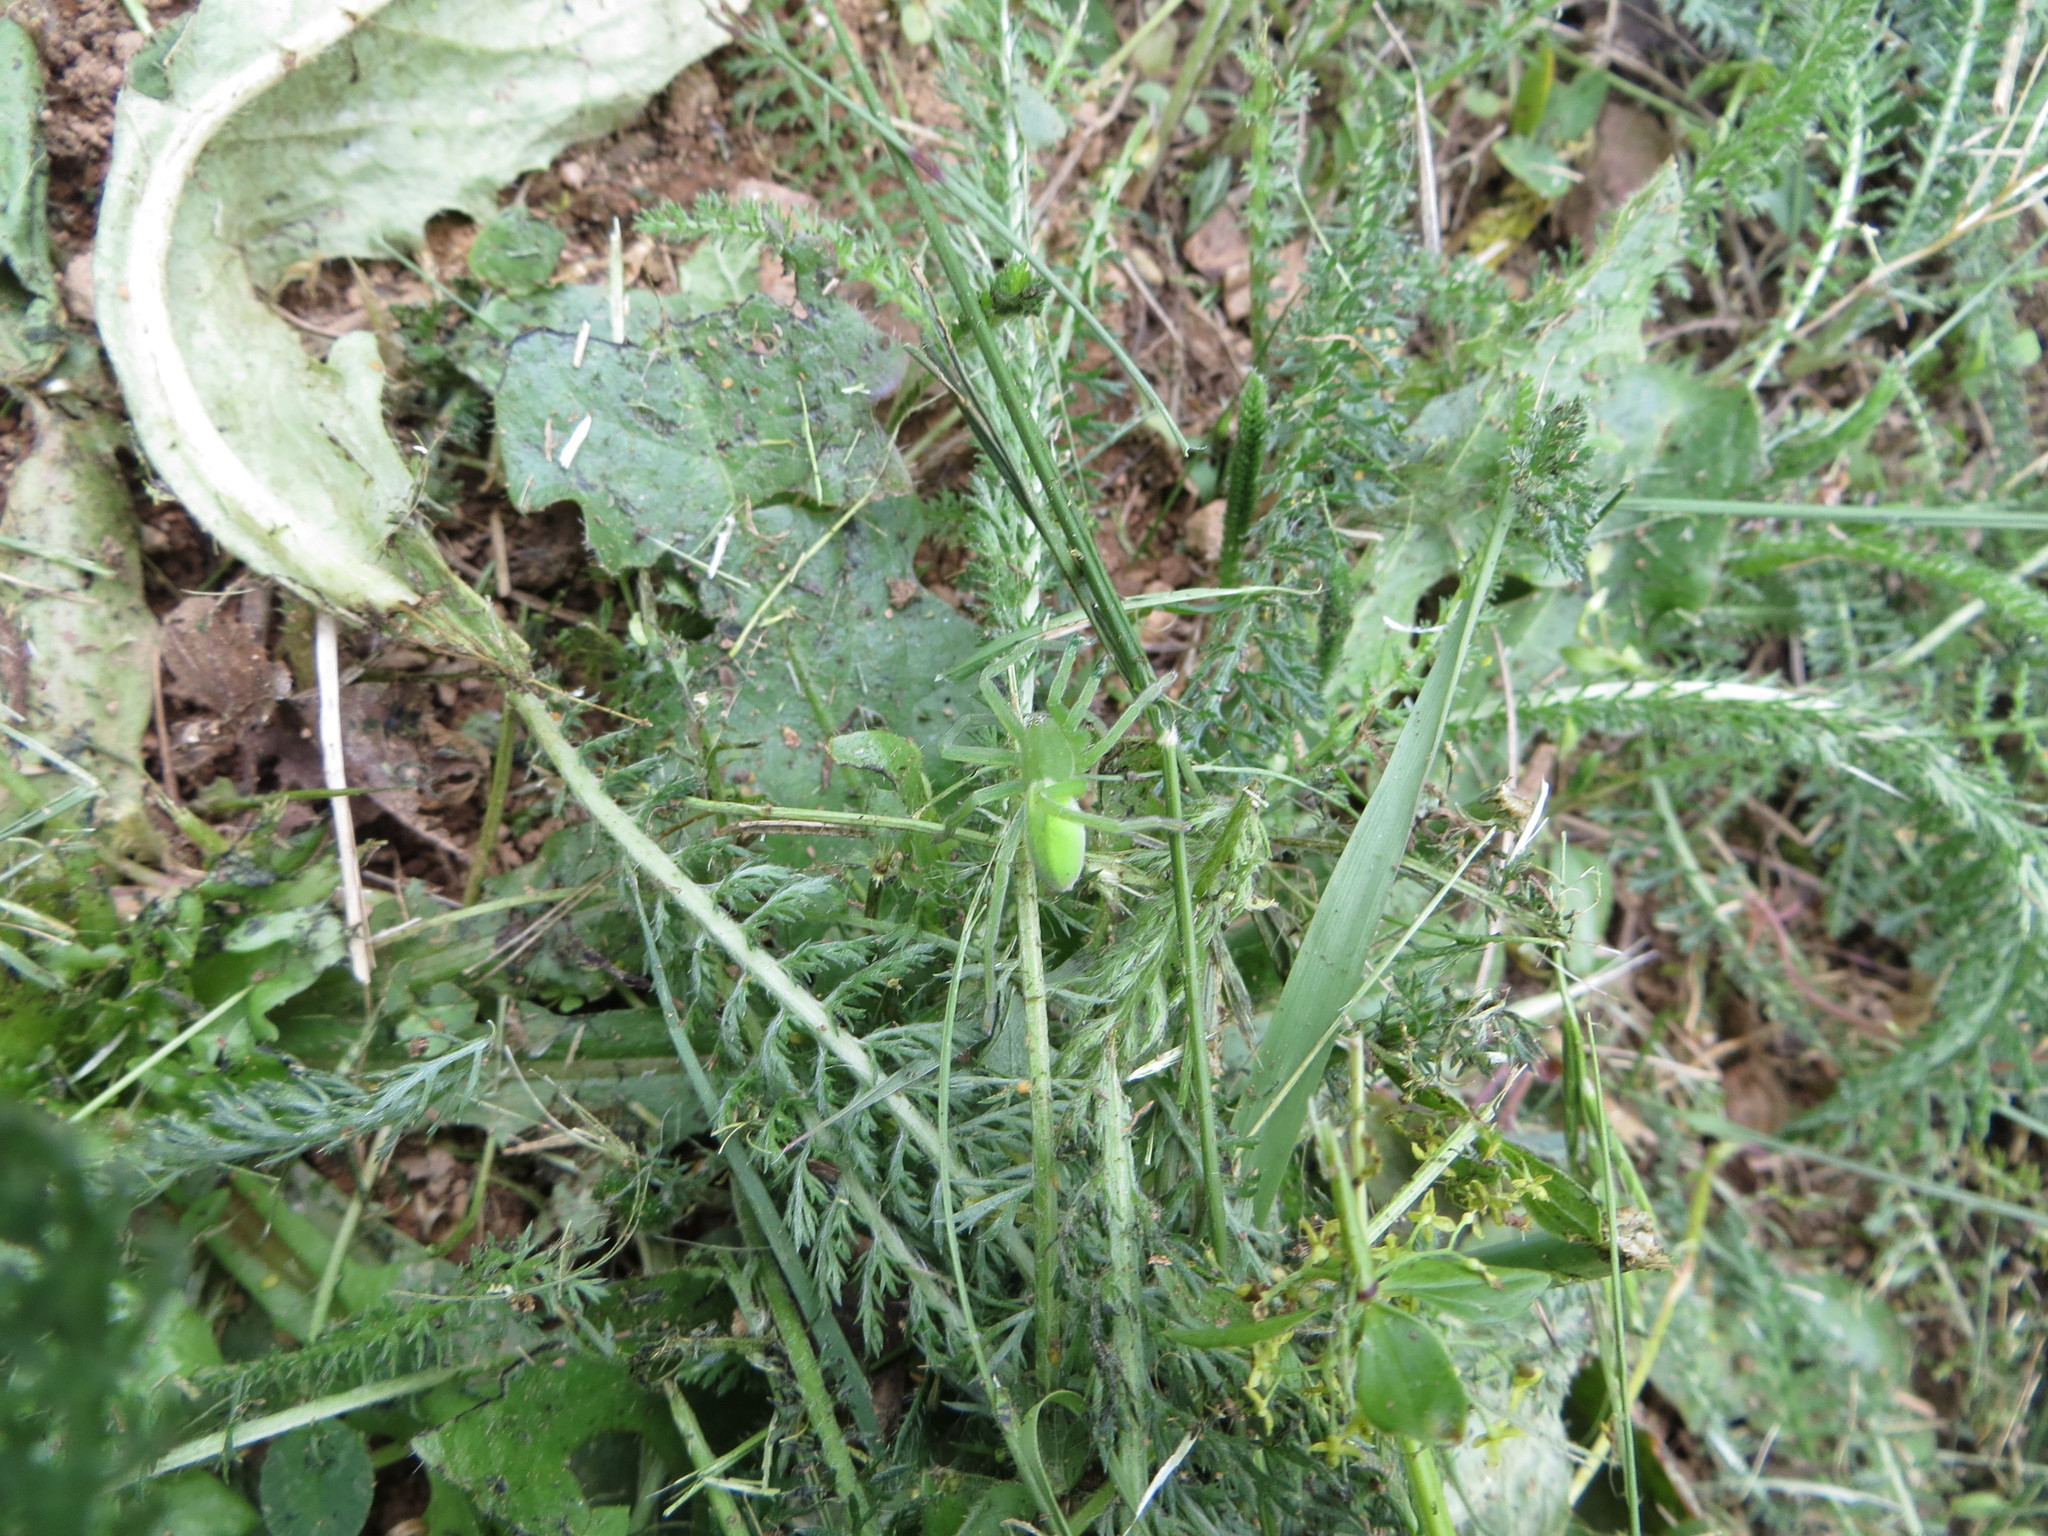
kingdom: Animalia
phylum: Arthropoda
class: Arachnida
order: Araneae
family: Sparassidae
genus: Micrommata
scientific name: Micrommata virescens
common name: Green spider
